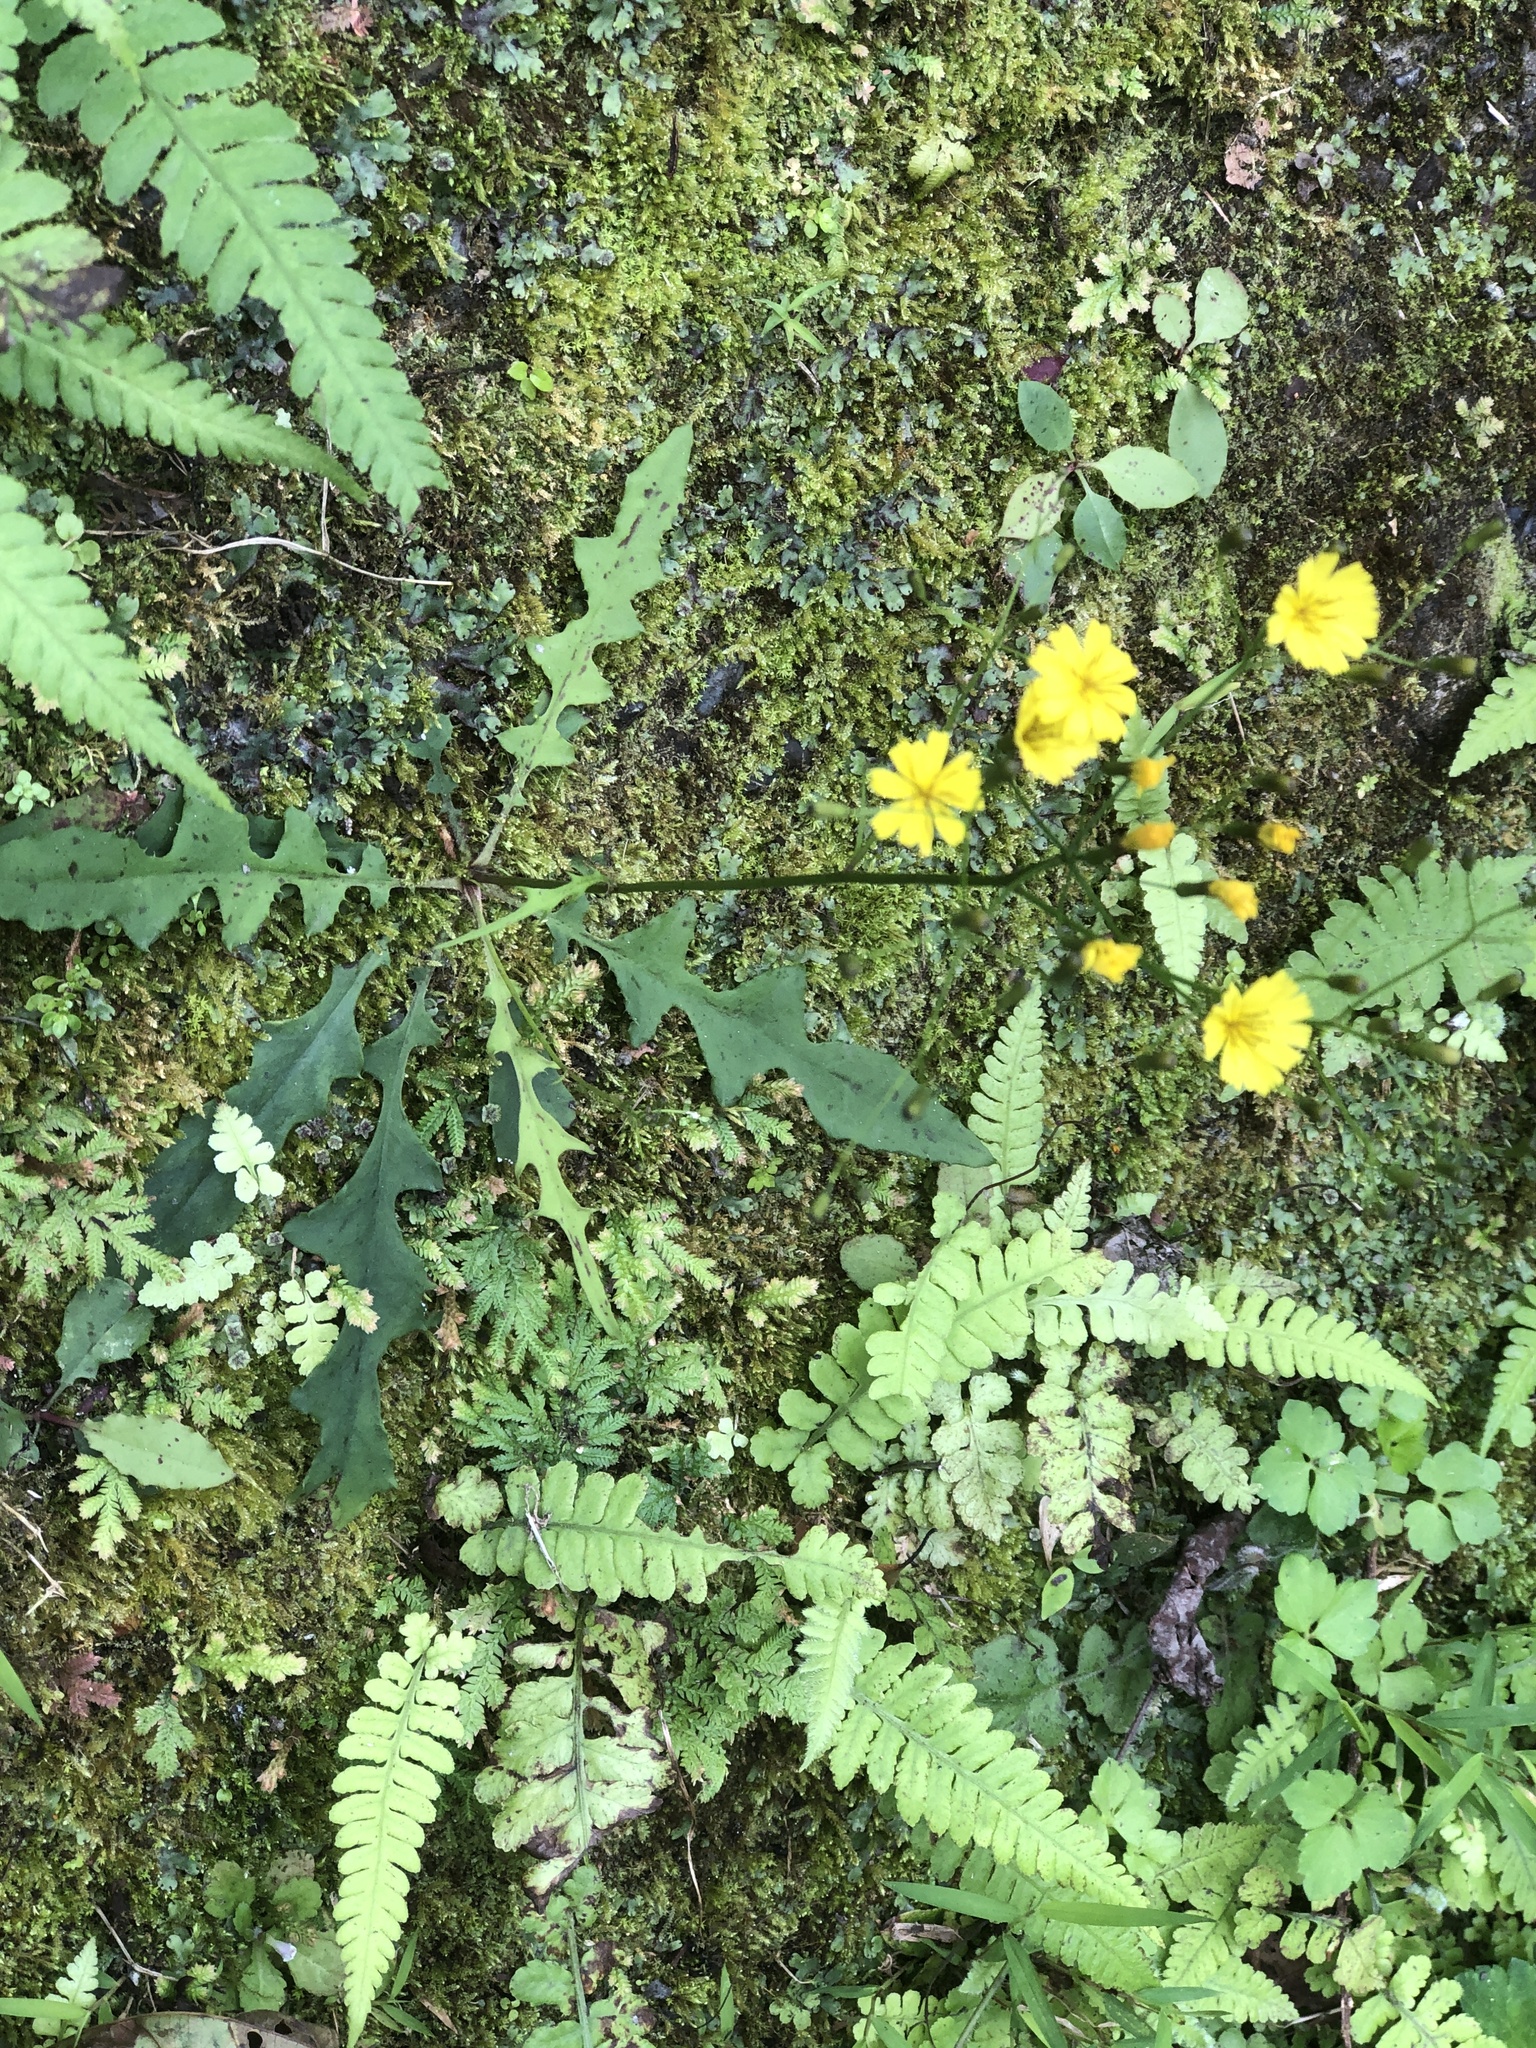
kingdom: Plantae
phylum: Tracheophyta
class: Magnoliopsida
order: Asterales
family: Asteraceae
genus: Ixeridium
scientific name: Ixeridium laevigatum
